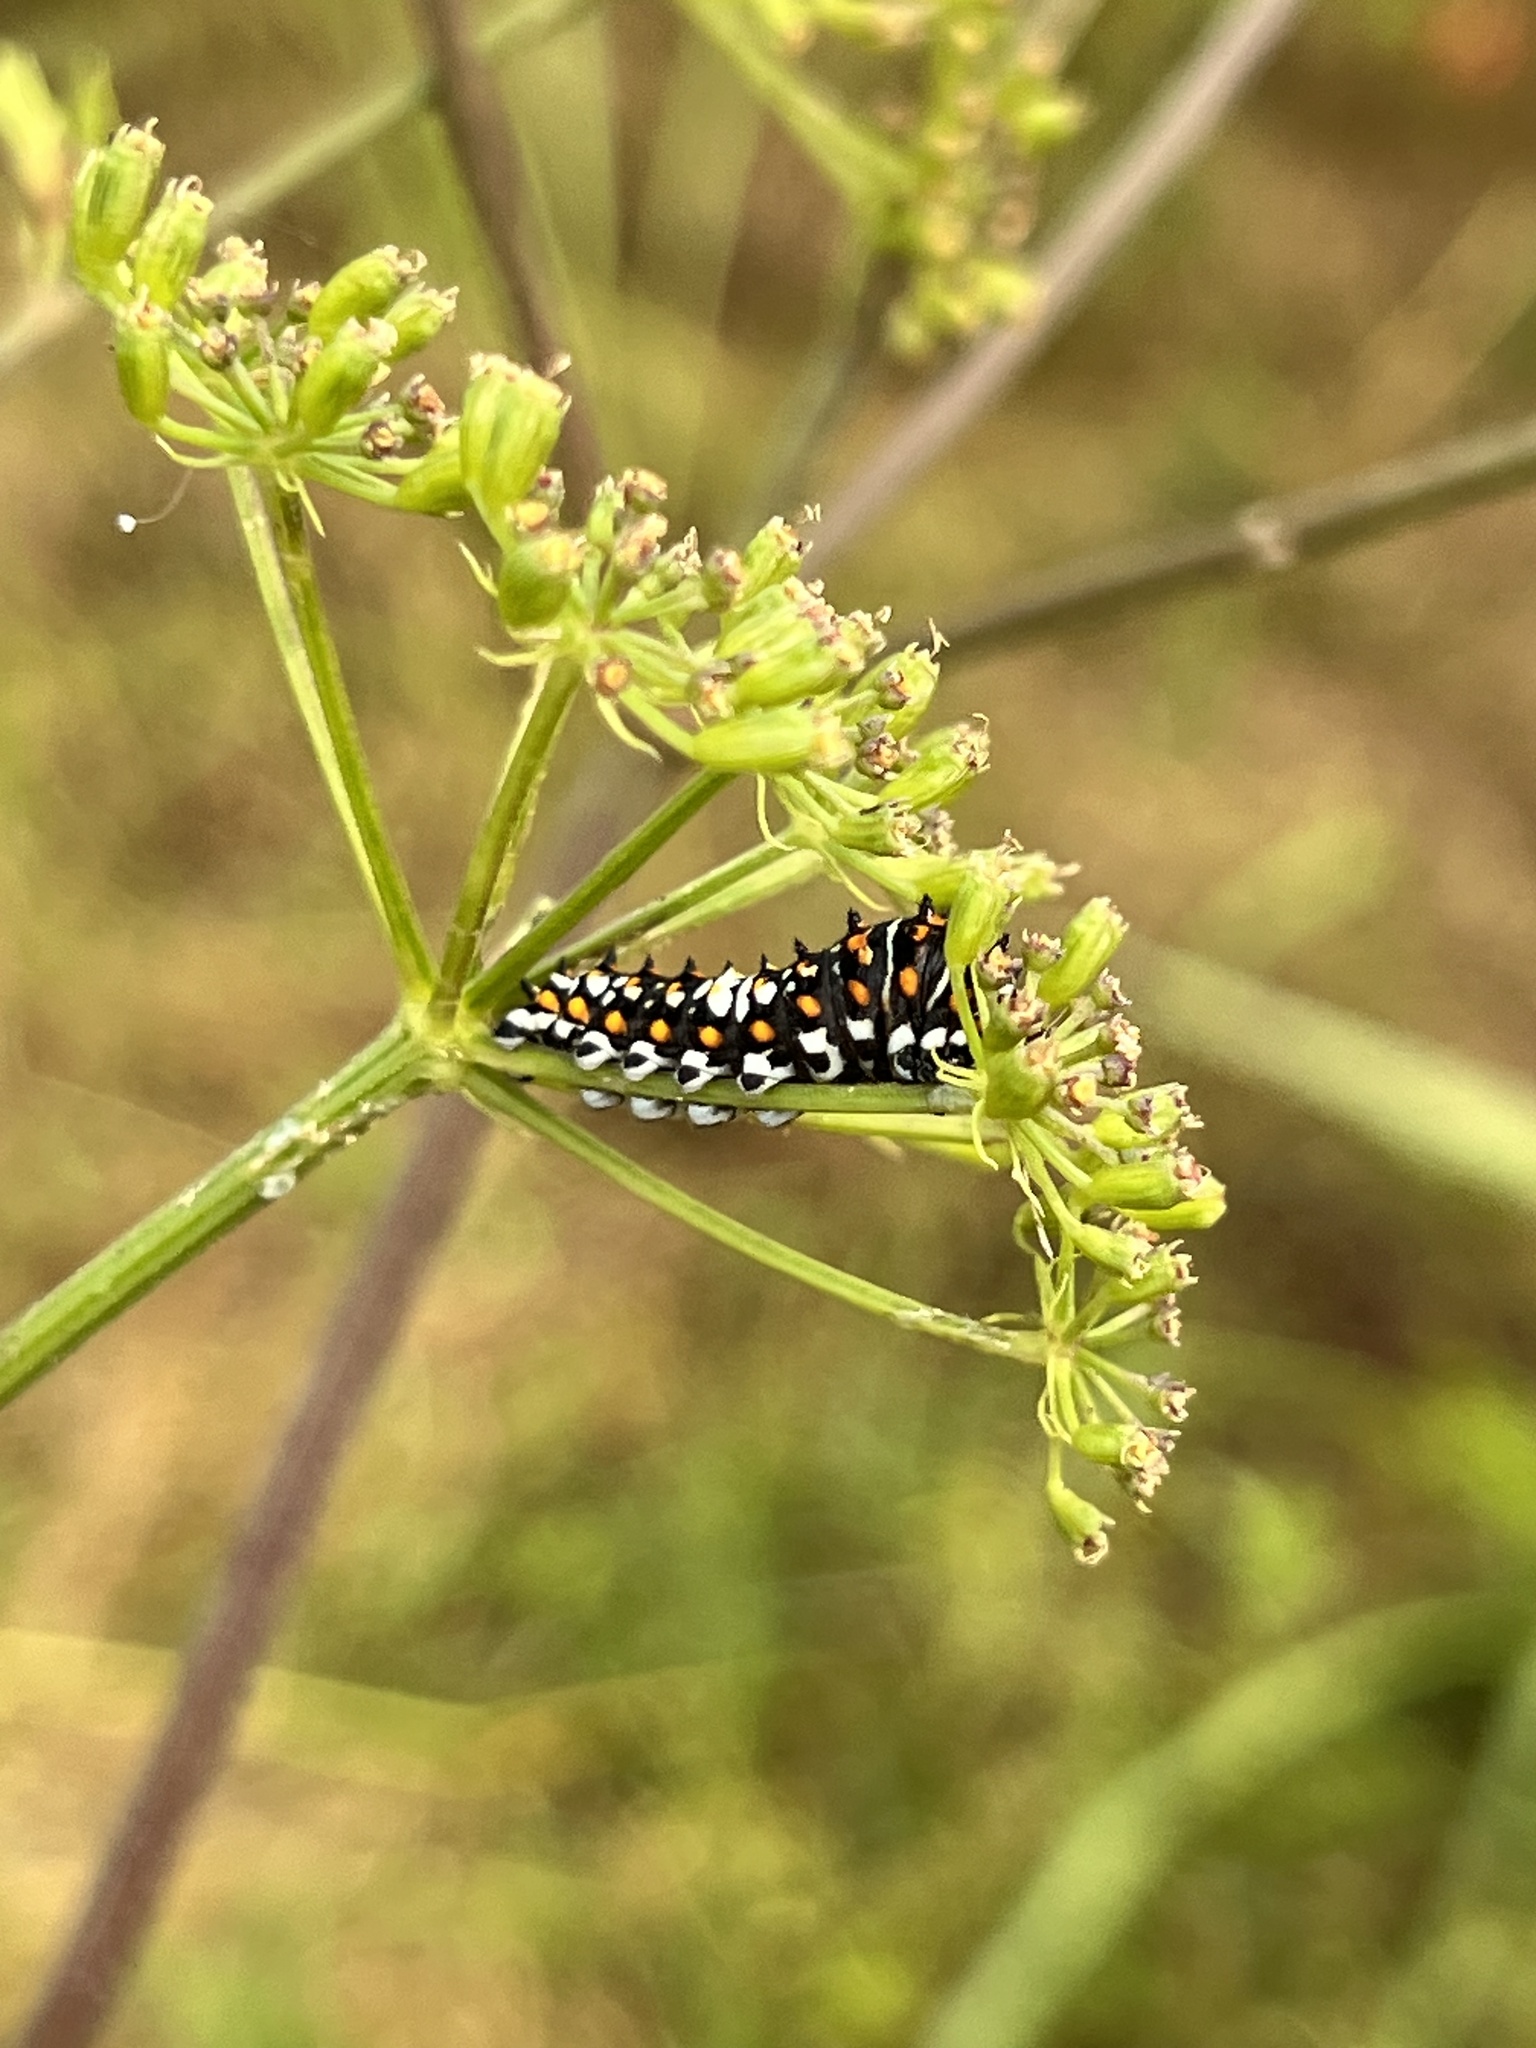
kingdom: Animalia
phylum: Arthropoda
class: Insecta
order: Lepidoptera
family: Papilionidae
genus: Papilio
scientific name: Papilio polyxenes
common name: Black swallowtail
